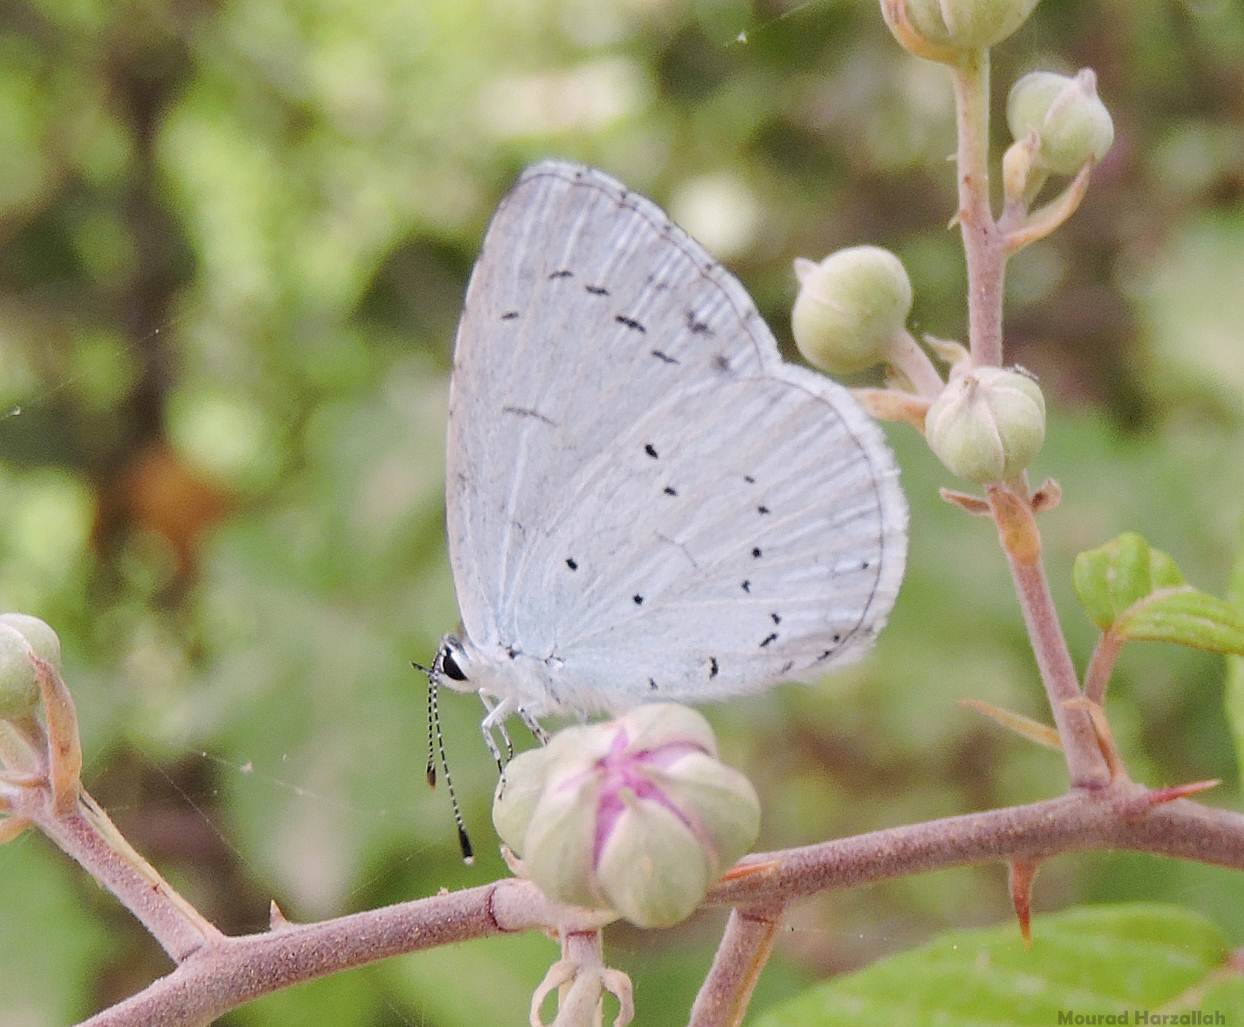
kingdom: Animalia
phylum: Arthropoda
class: Insecta
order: Lepidoptera
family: Lycaenidae
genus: Celastrina
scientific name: Celastrina argiolus
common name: Holly blue
